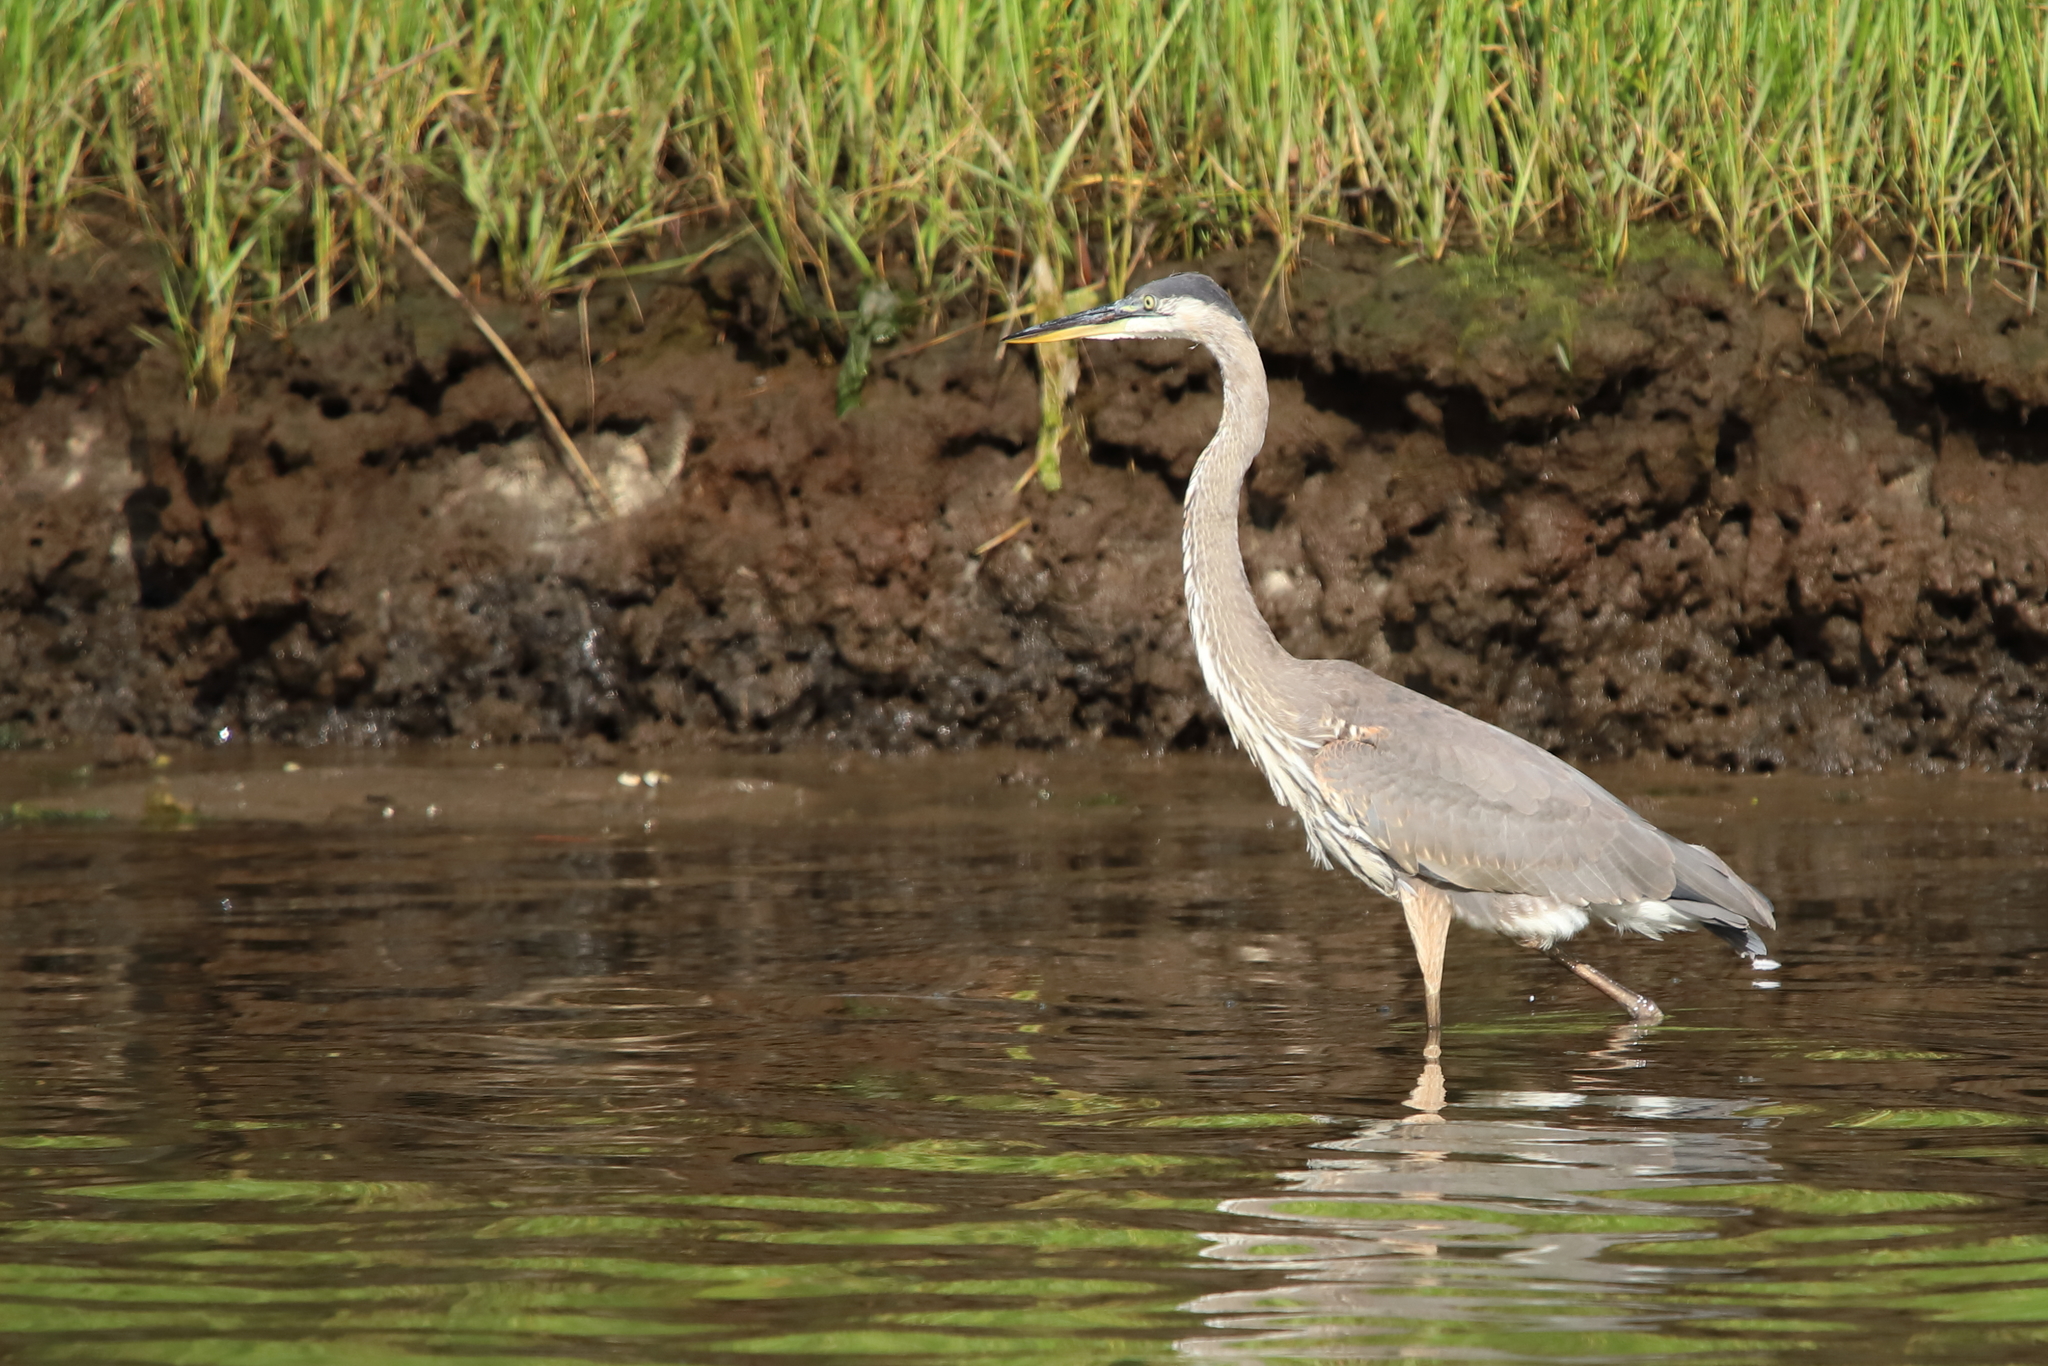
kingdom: Animalia
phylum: Chordata
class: Aves
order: Pelecaniformes
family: Ardeidae
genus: Ardea
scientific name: Ardea herodias
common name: Great blue heron
